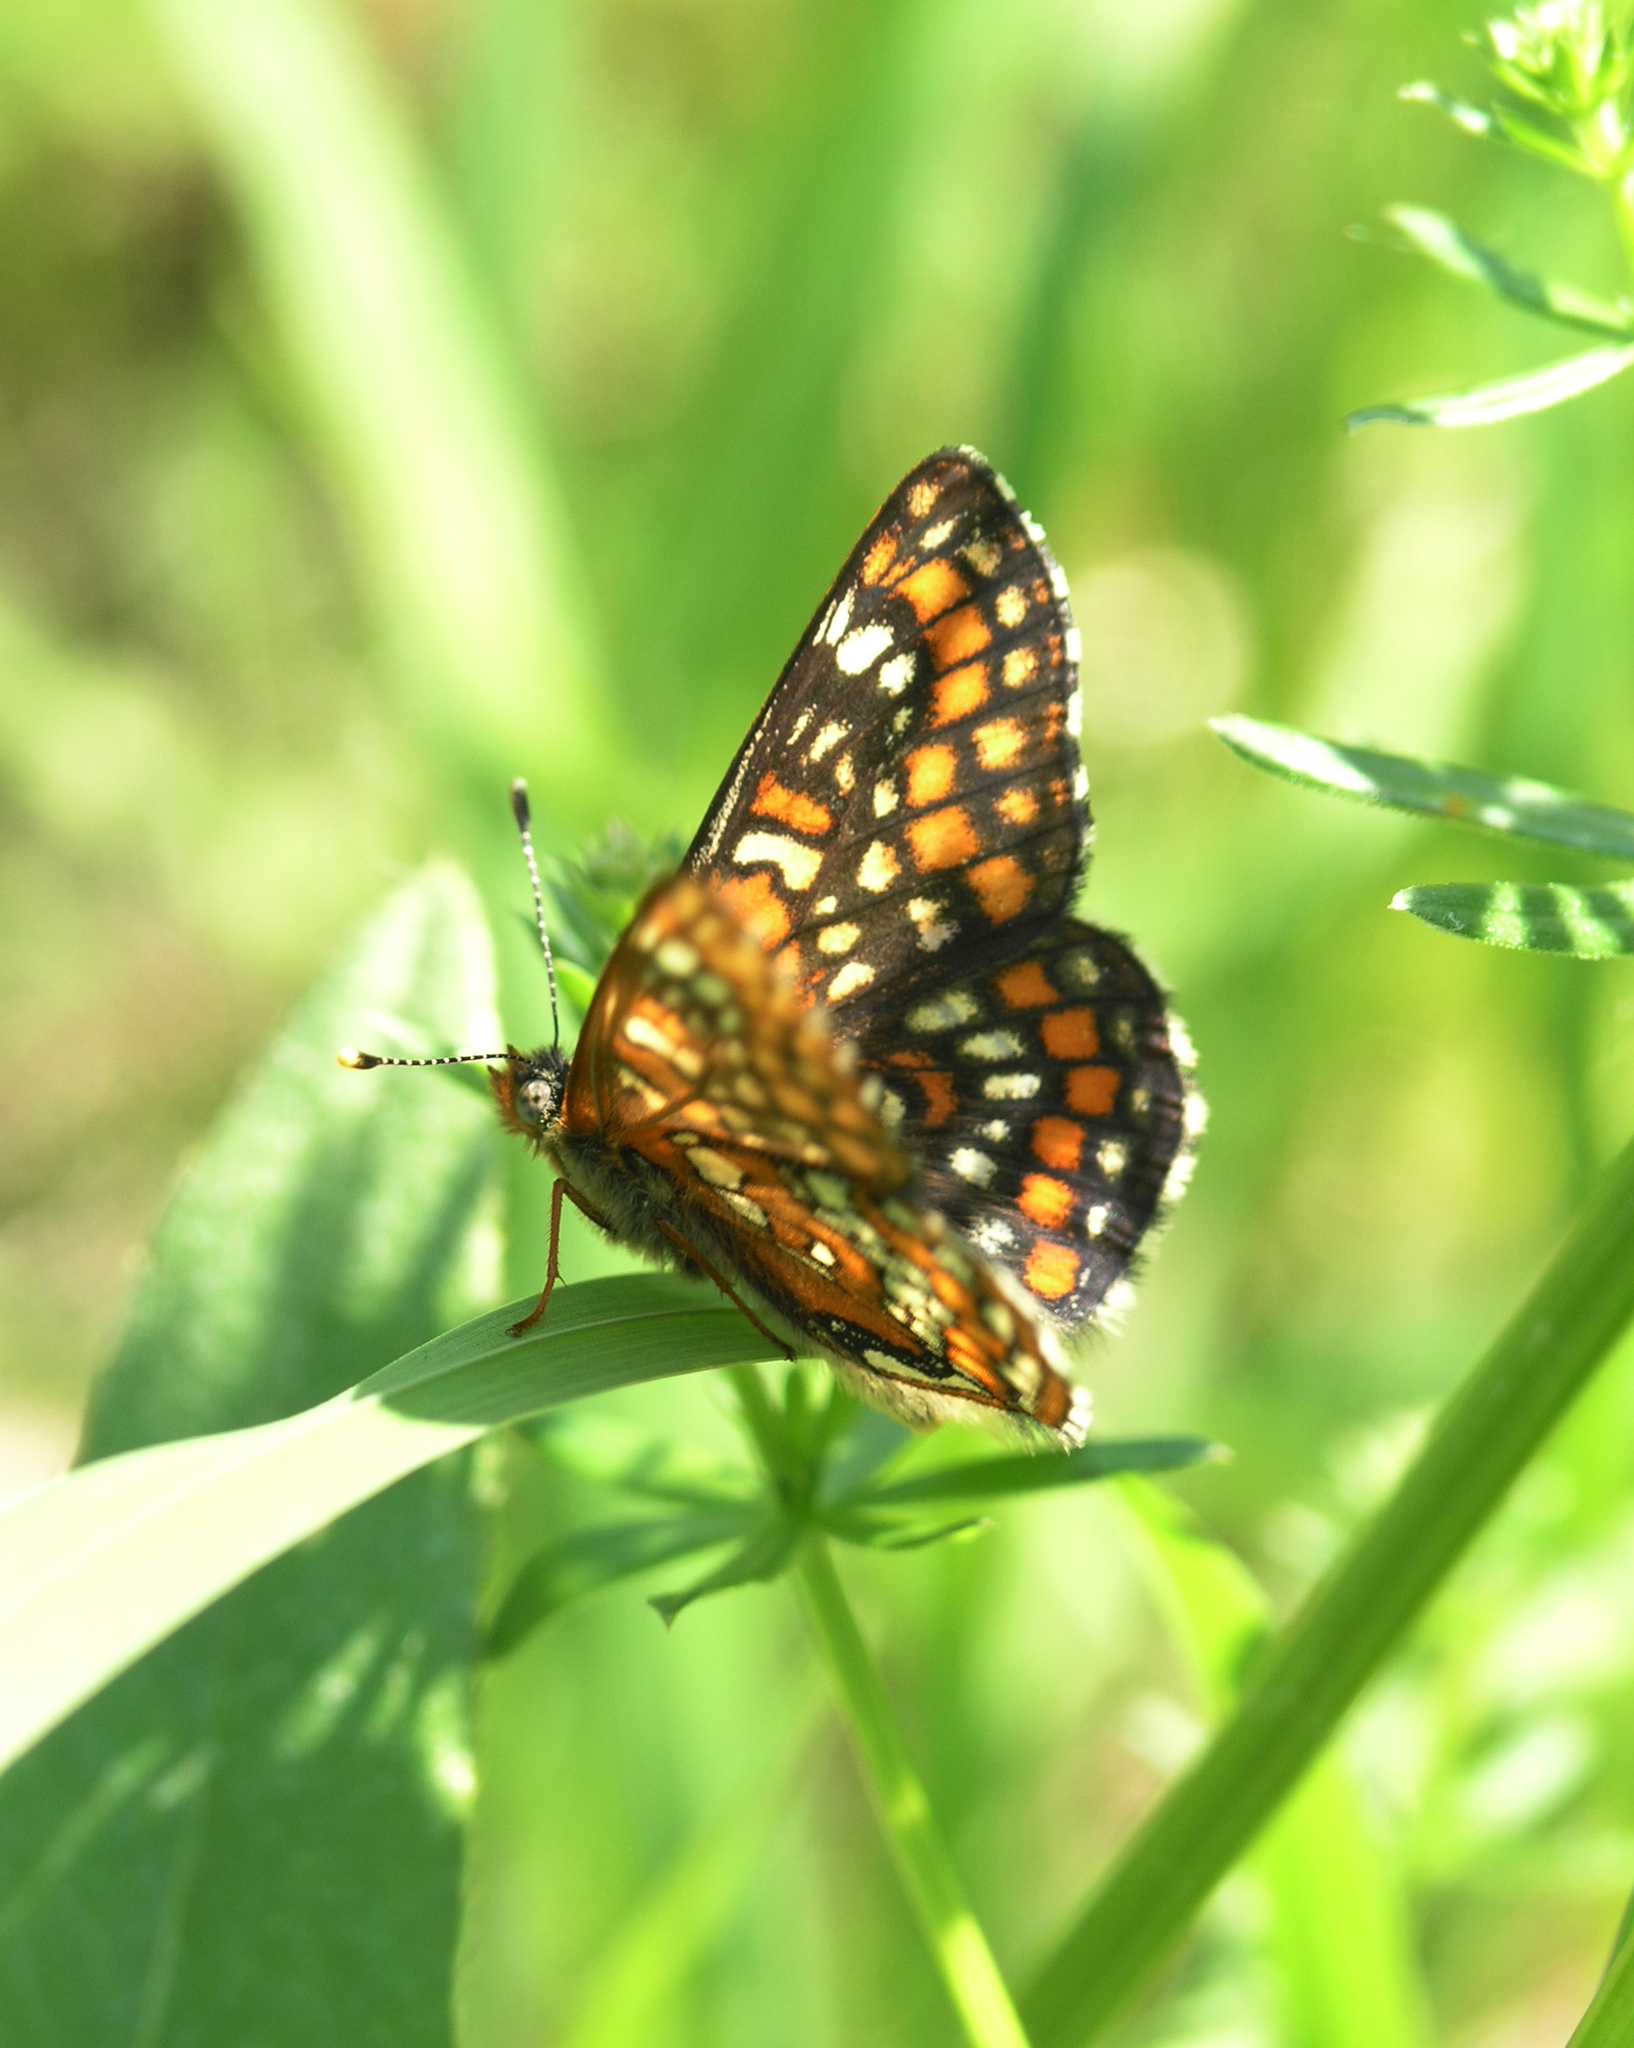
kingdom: Animalia
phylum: Arthropoda
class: Insecta
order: Lepidoptera
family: Nymphalidae
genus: Euphydryas
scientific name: Euphydryas maturna
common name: Scarce fritillary
